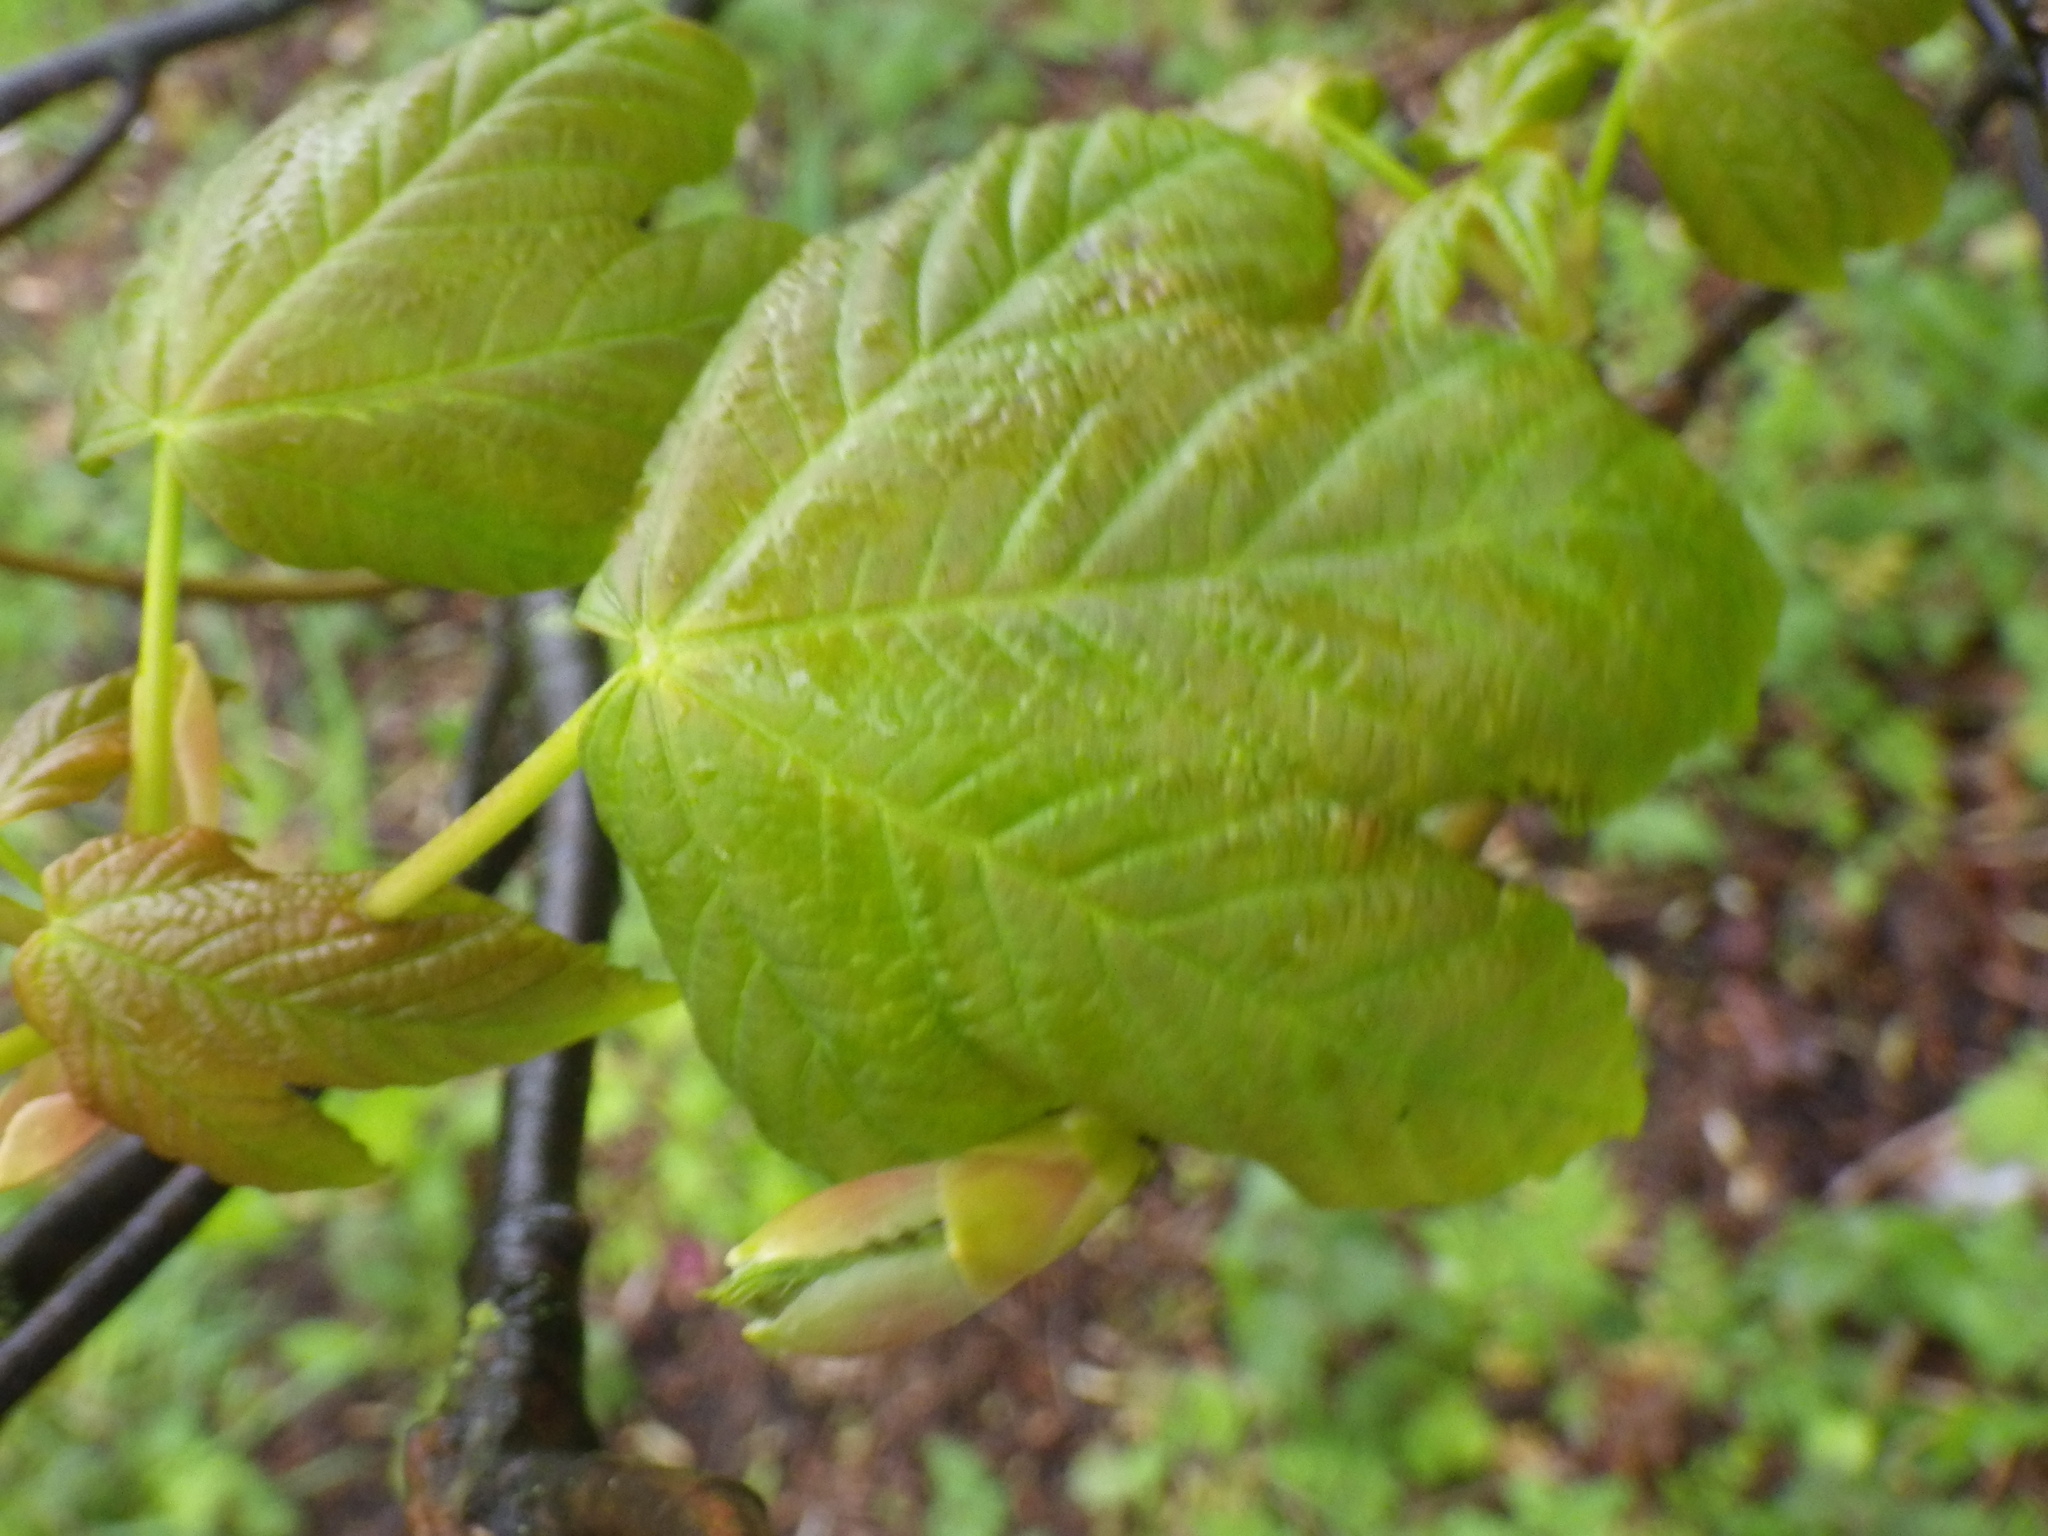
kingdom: Plantae
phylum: Tracheophyta
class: Magnoliopsida
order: Sapindales
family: Sapindaceae
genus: Acer
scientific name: Acer pseudoplatanus
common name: Sycamore
